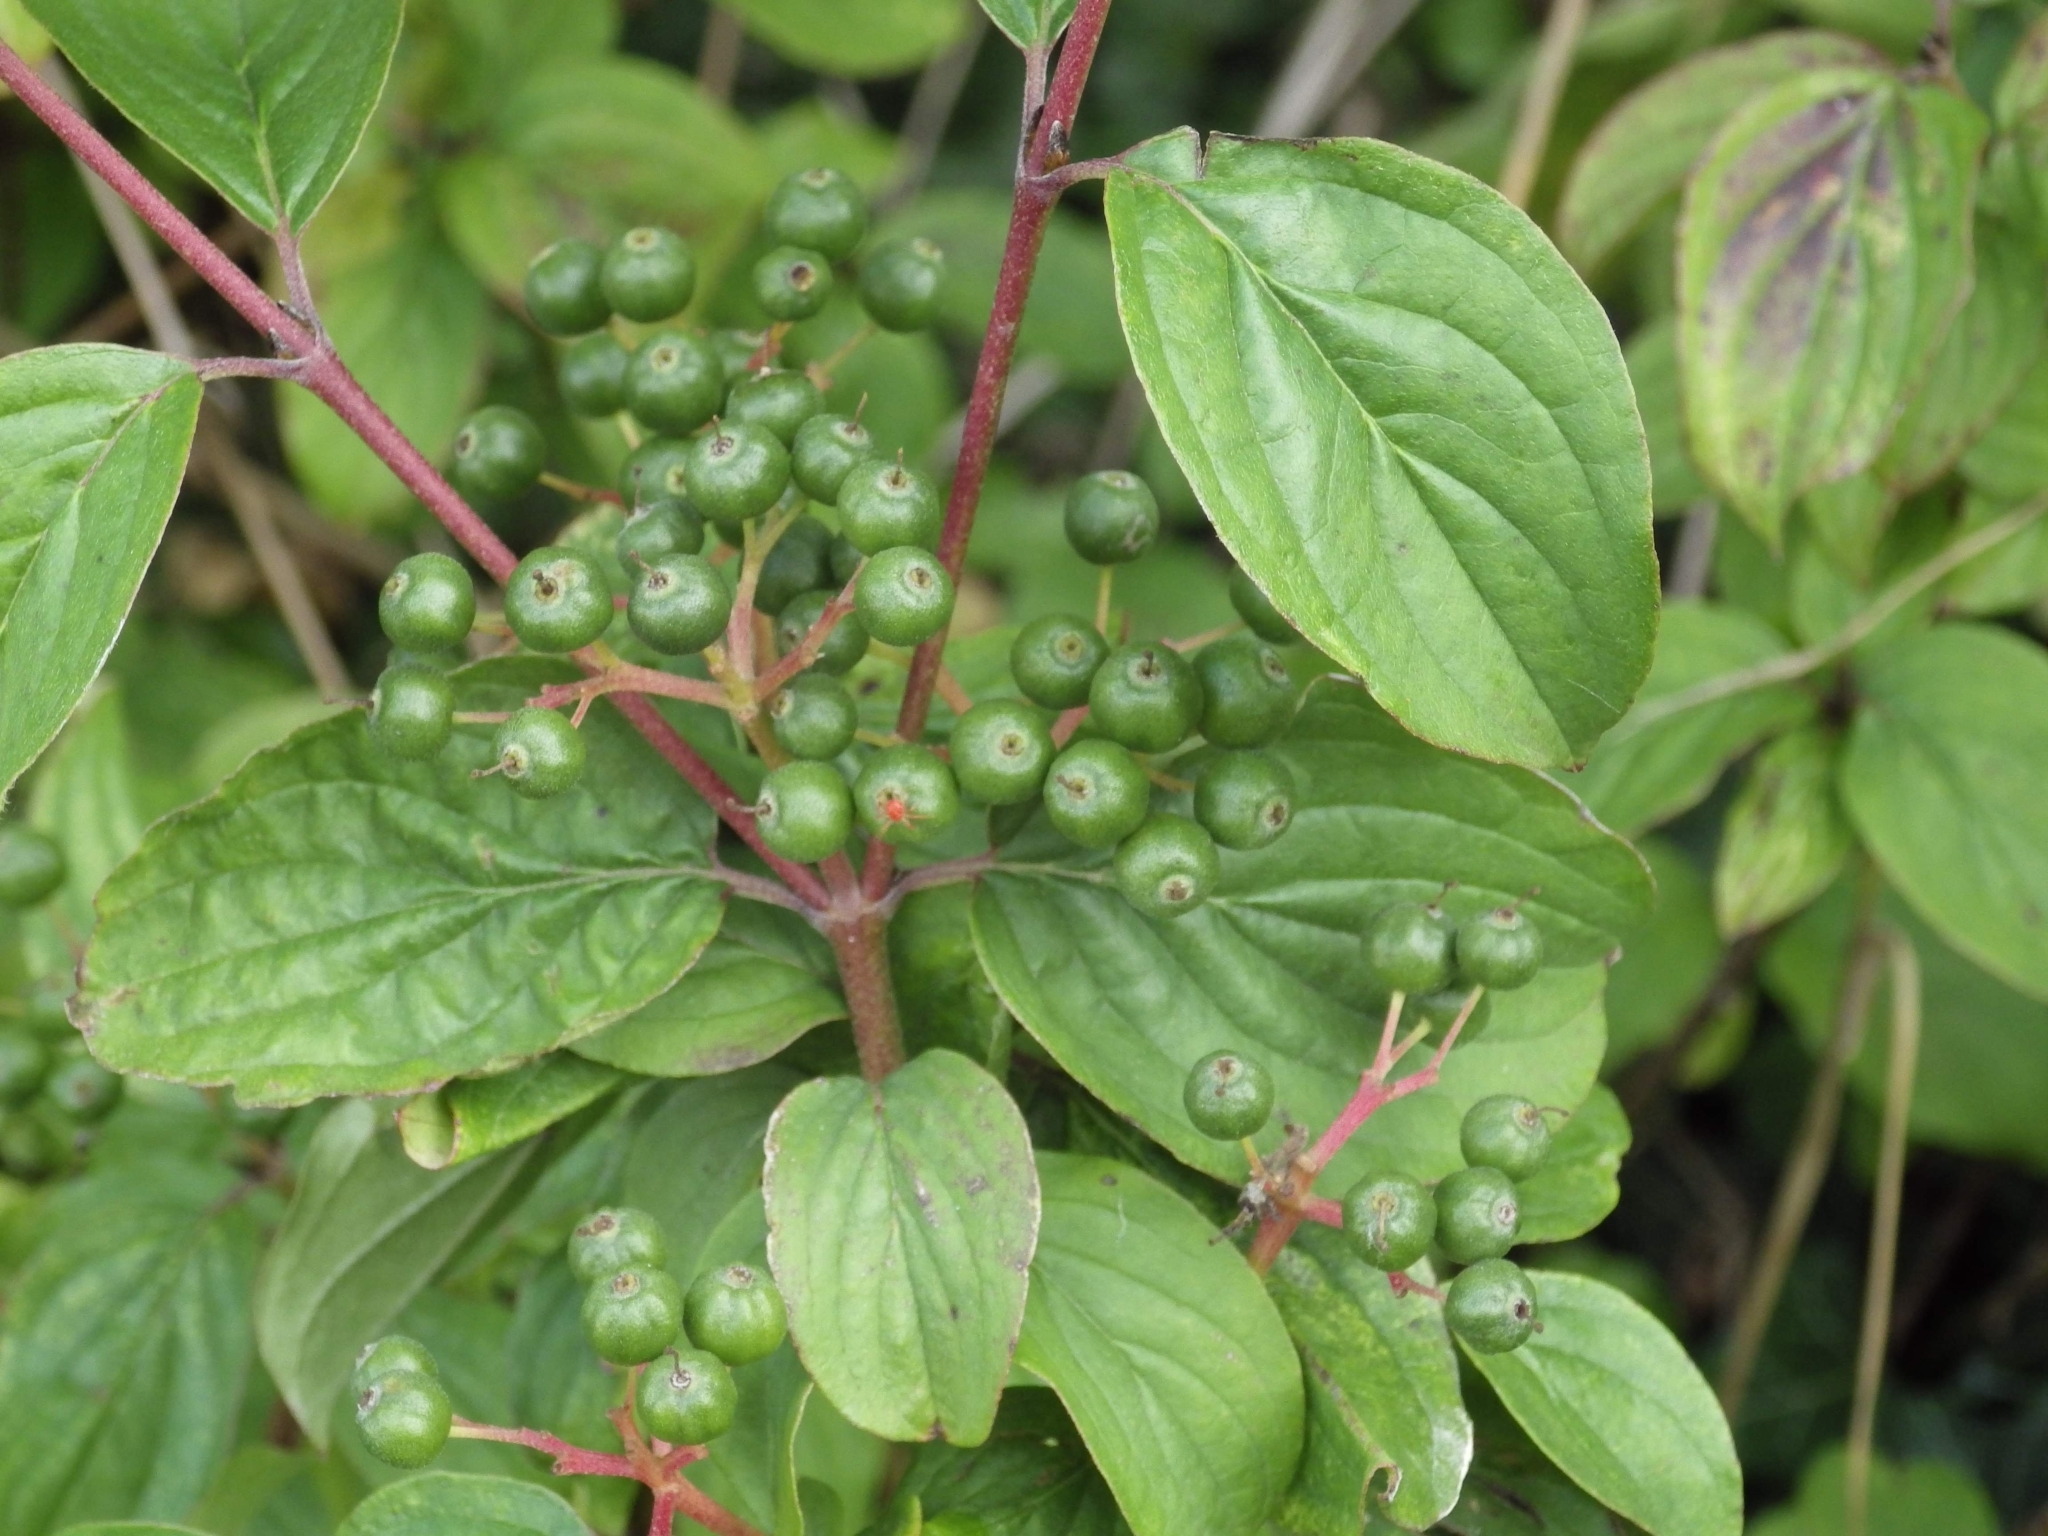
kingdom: Plantae
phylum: Tracheophyta
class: Magnoliopsida
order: Cornales
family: Cornaceae
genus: Cornus
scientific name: Cornus sanguinea
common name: Dogwood
